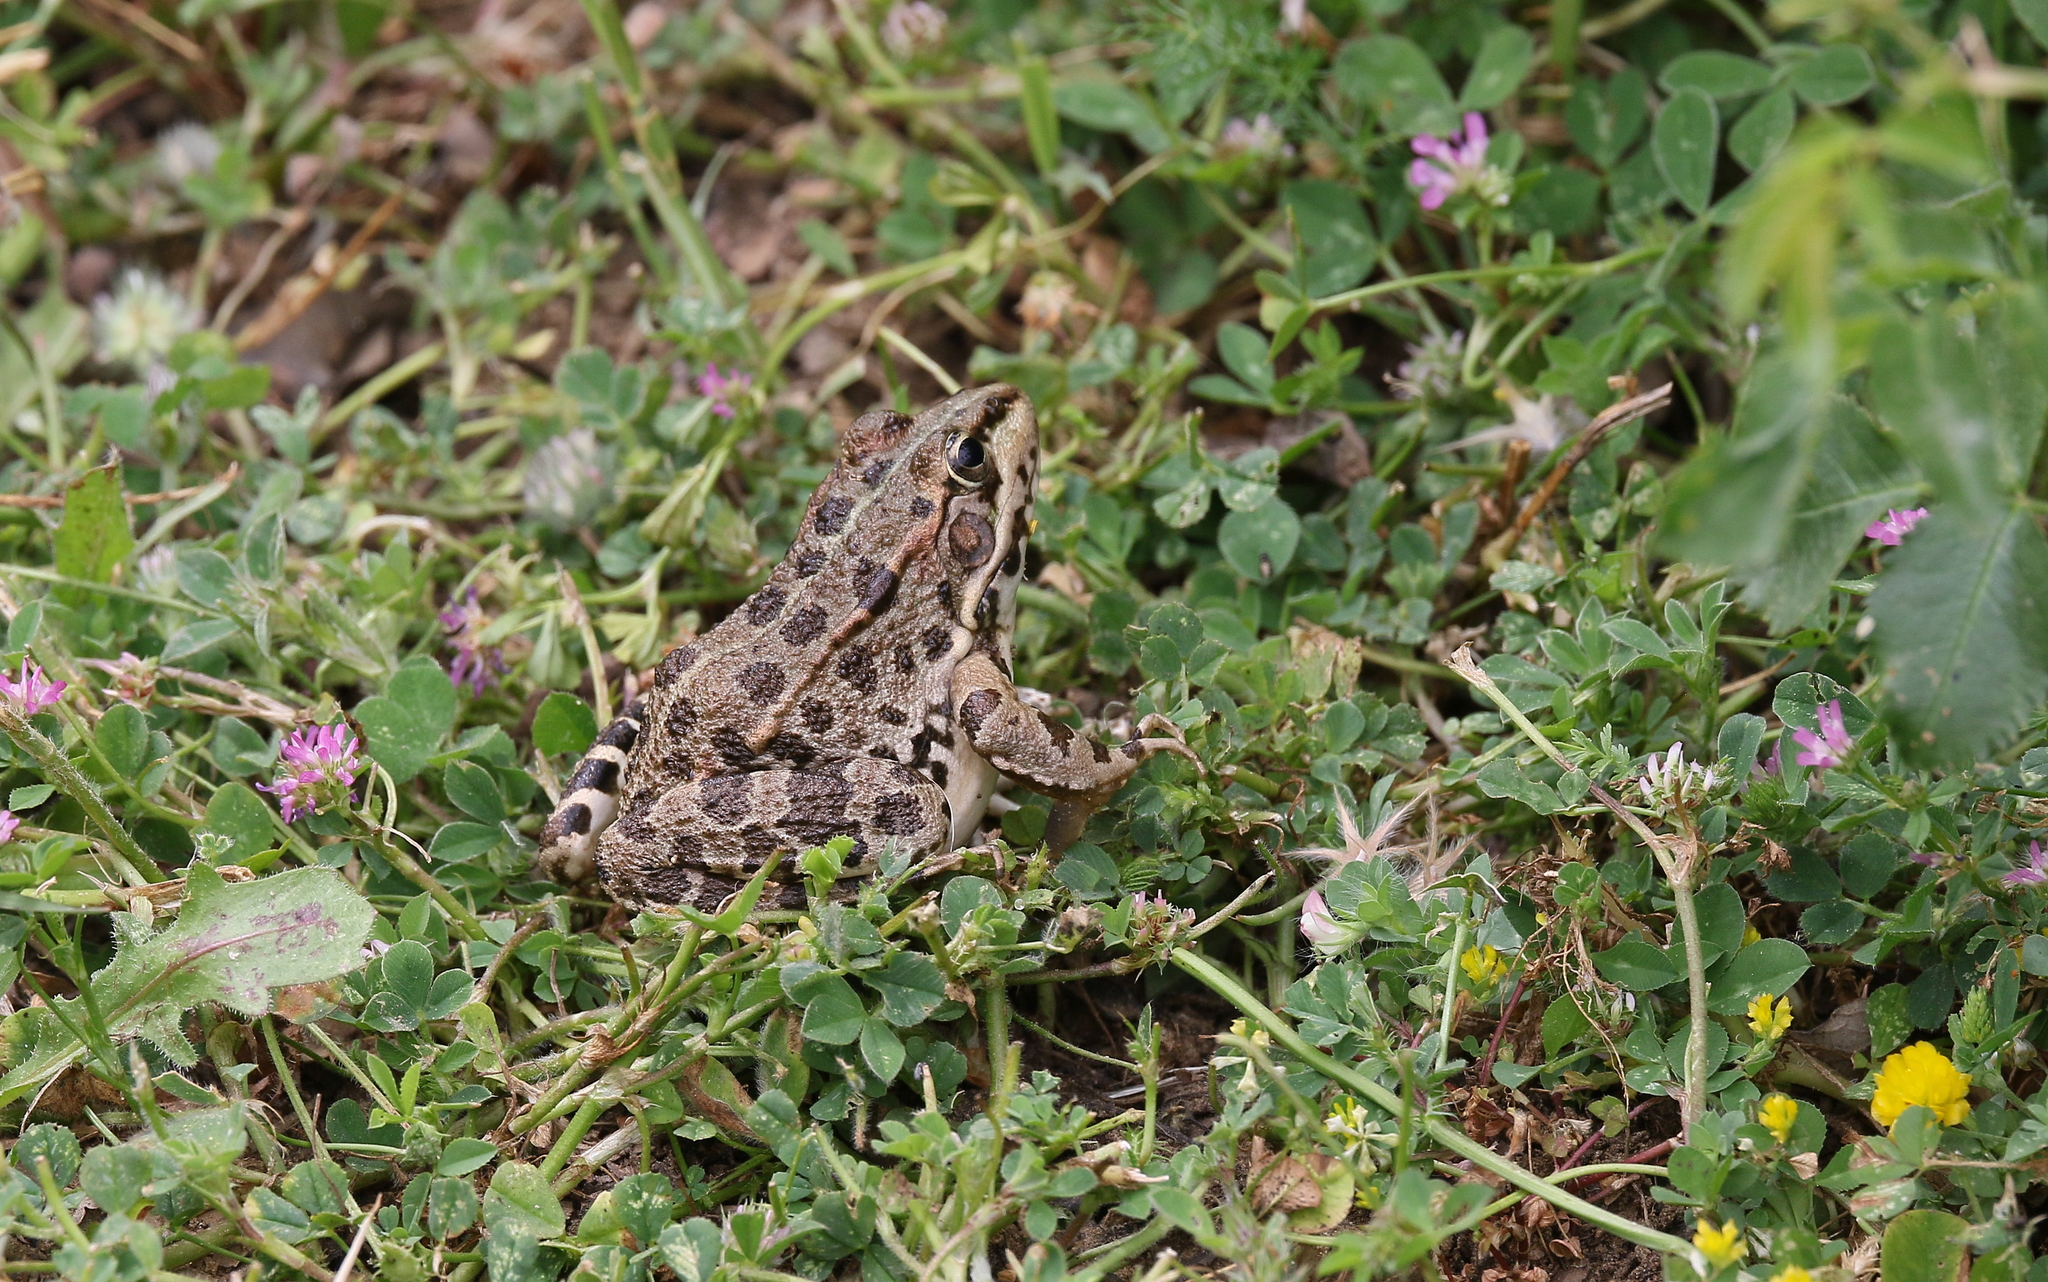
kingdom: Animalia
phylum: Chordata
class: Amphibia
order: Anura
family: Ranidae
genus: Pelophylax
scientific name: Pelophylax perezi
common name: Perez's frog
